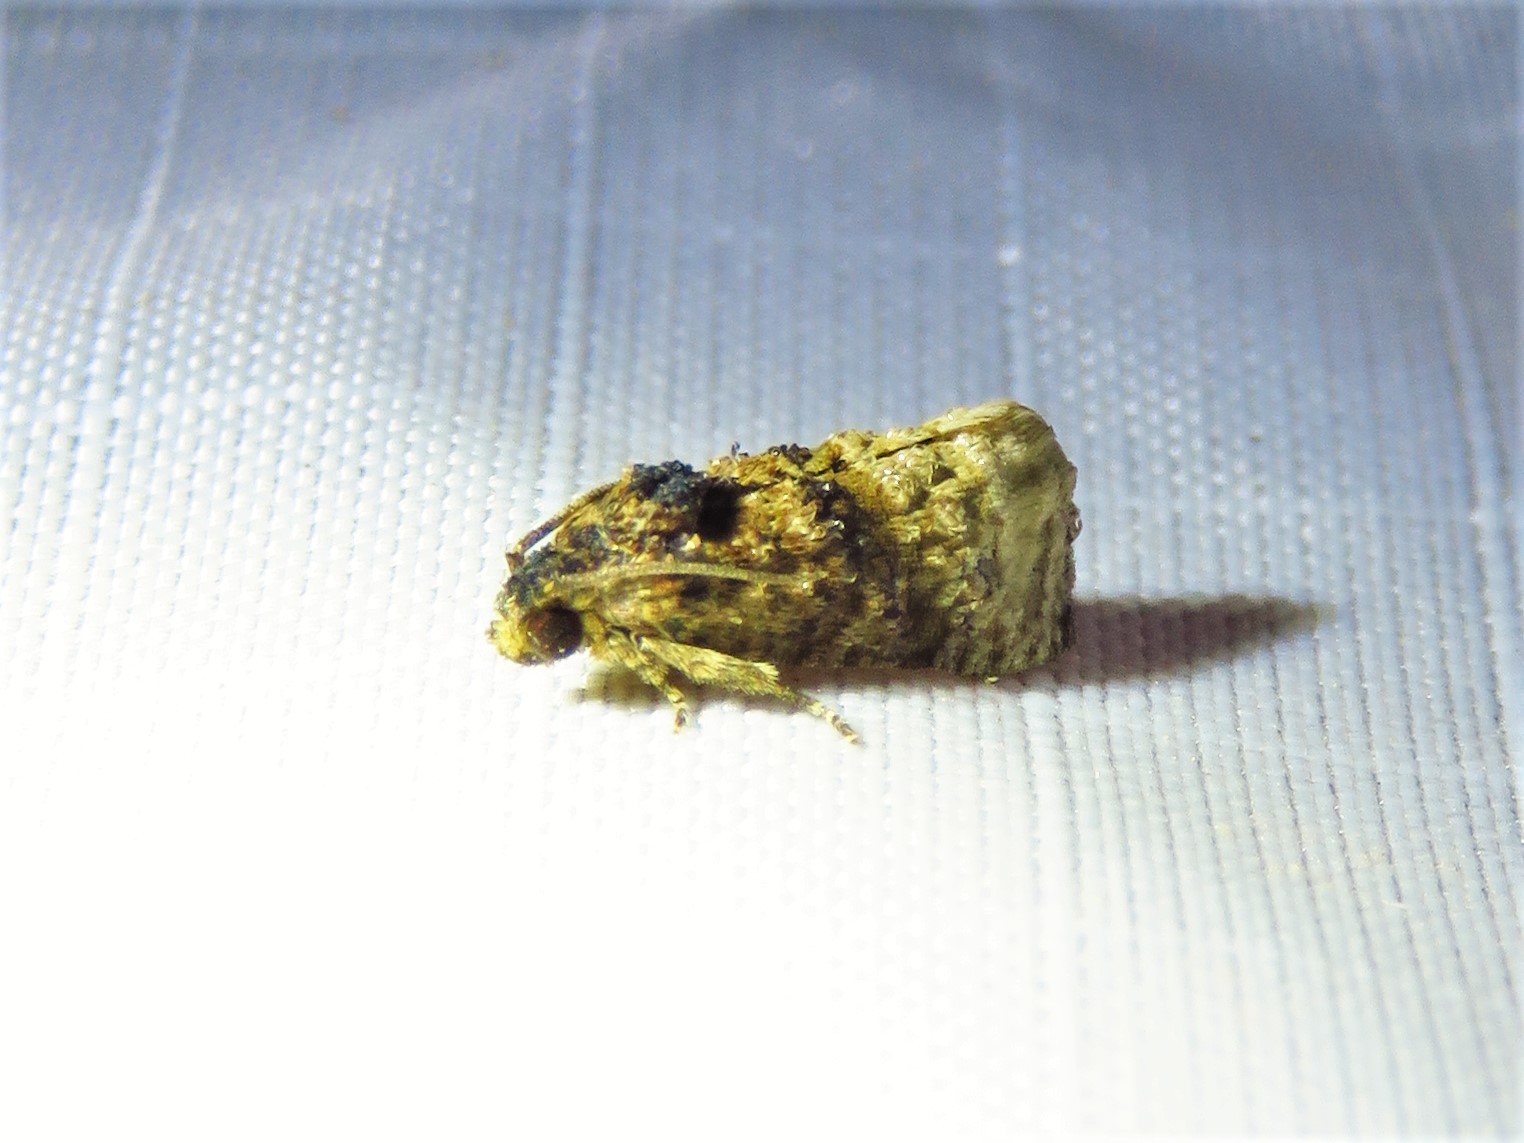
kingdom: Animalia
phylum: Arthropoda
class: Insecta
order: Lepidoptera
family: Tortricidae
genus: Ecdytolopha
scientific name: Ecdytolopha mana
